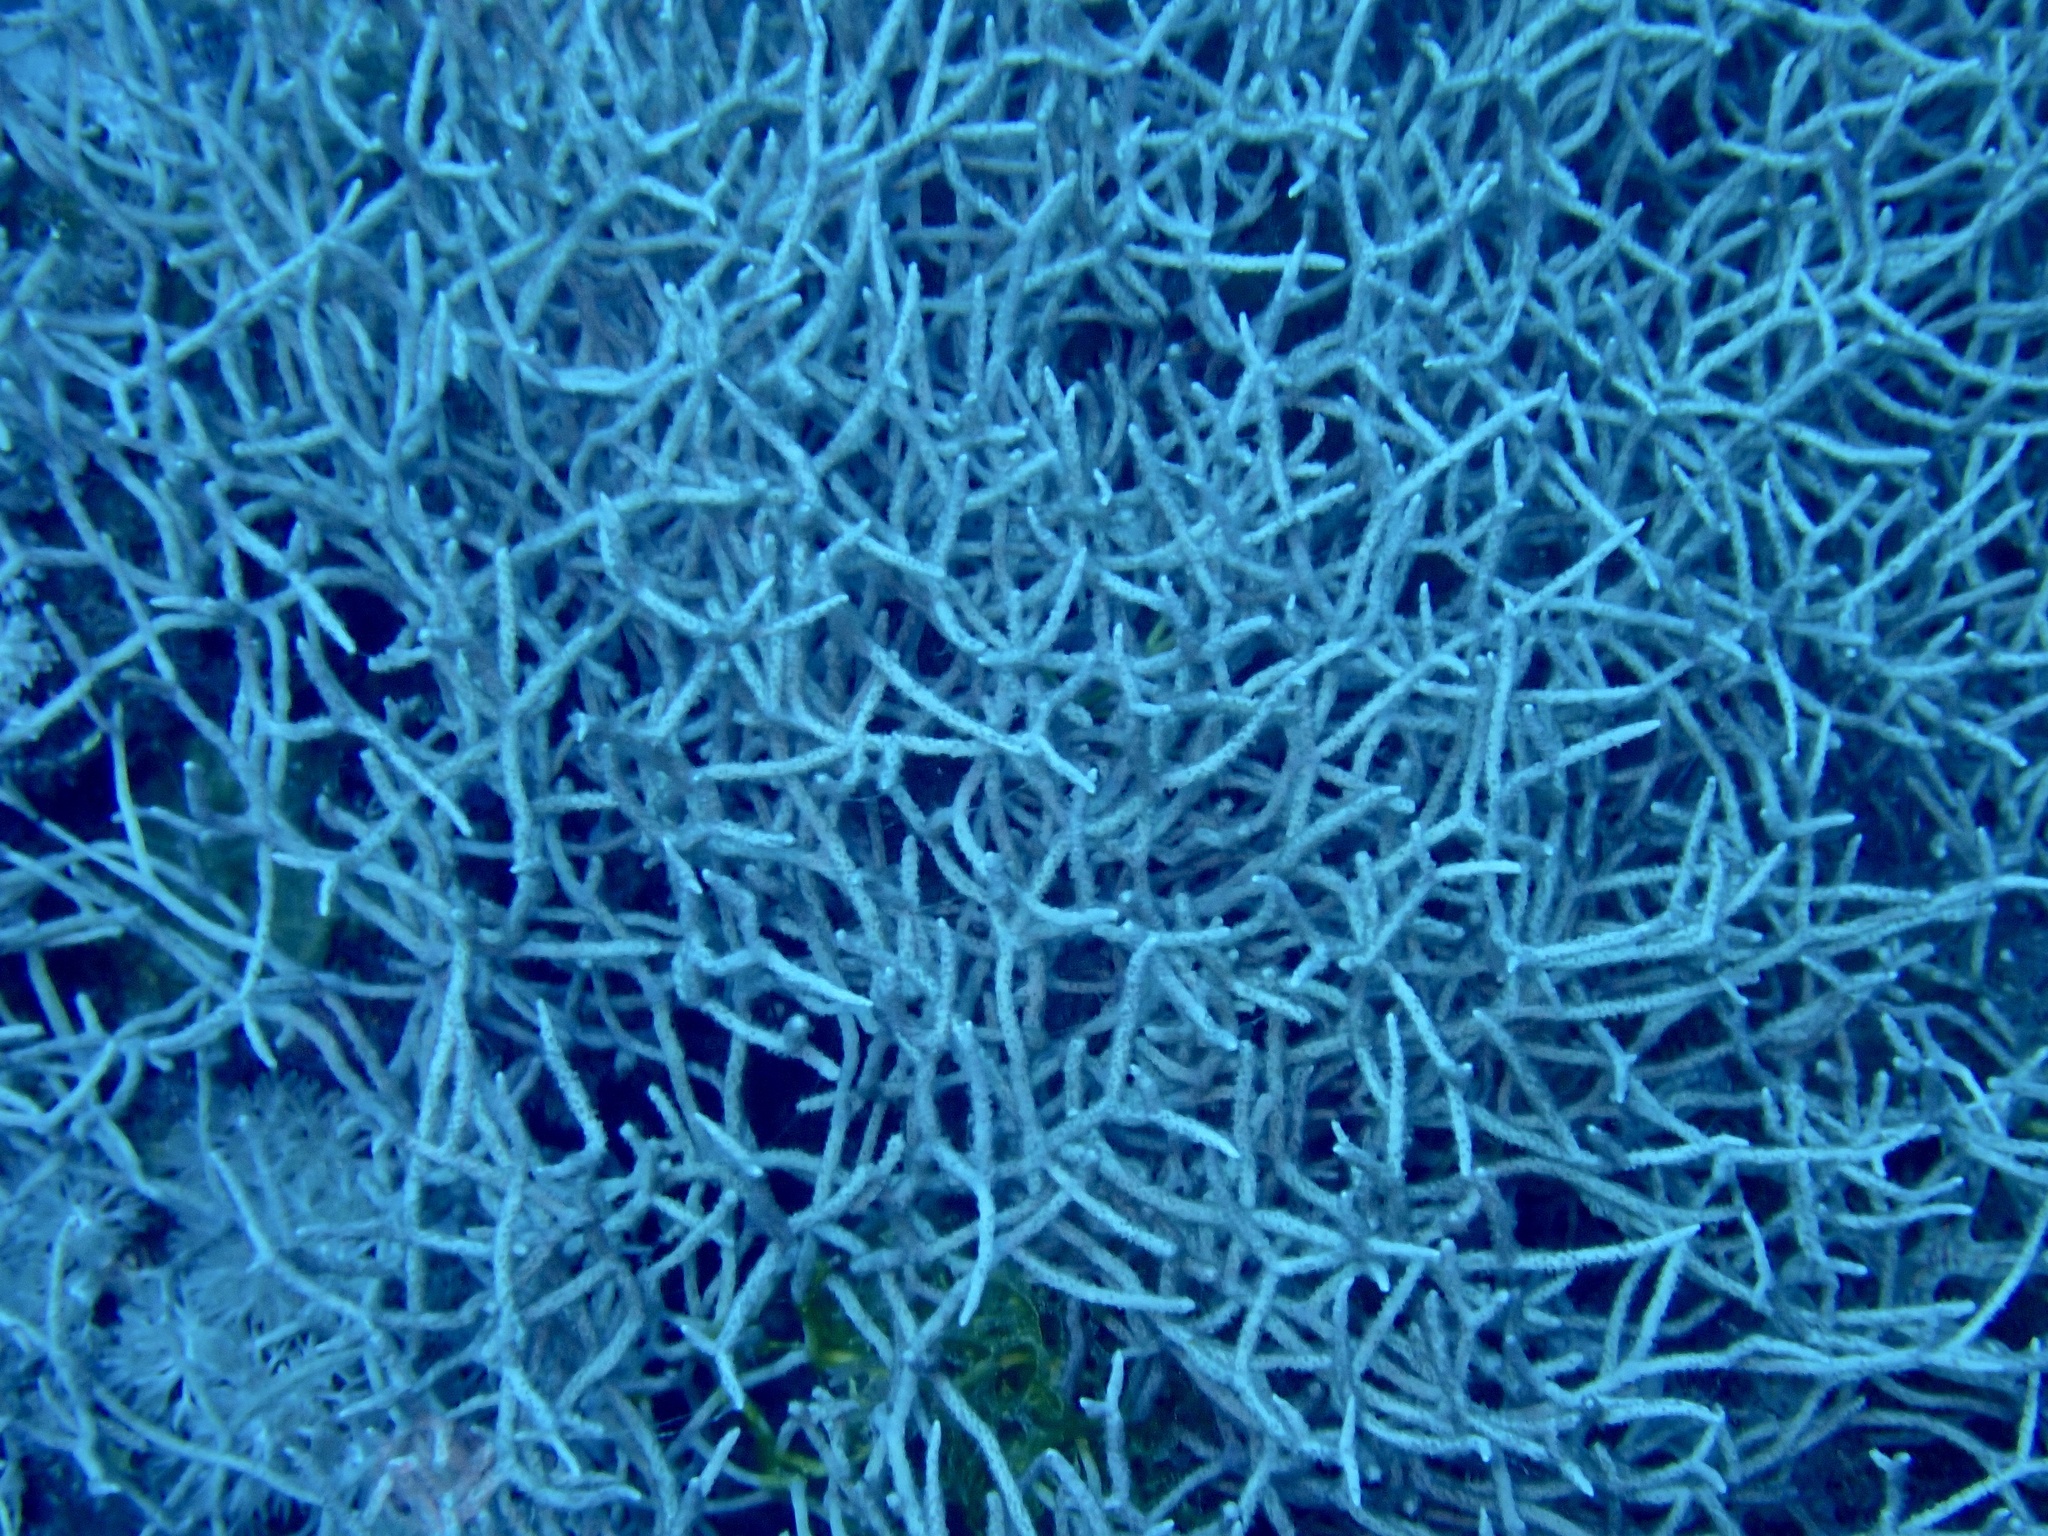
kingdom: Animalia
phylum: Cnidaria
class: Anthozoa
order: Malacalcyonacea
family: Melithaeidae
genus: Melithaea
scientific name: Melithaea rubrinodis
